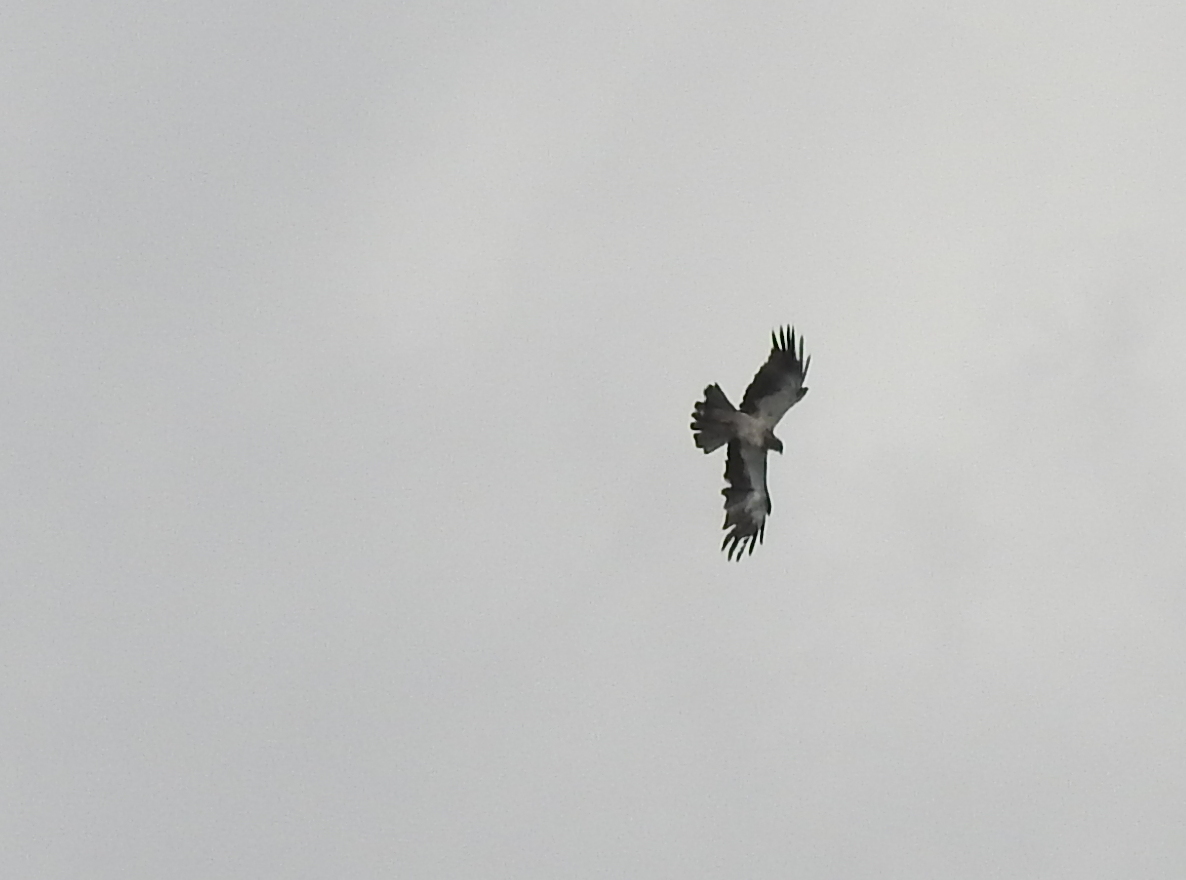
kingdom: Animalia
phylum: Chordata
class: Aves
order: Accipitriformes
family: Accipitridae
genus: Hieraaetus
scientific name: Hieraaetus pennatus
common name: Booted eagle
